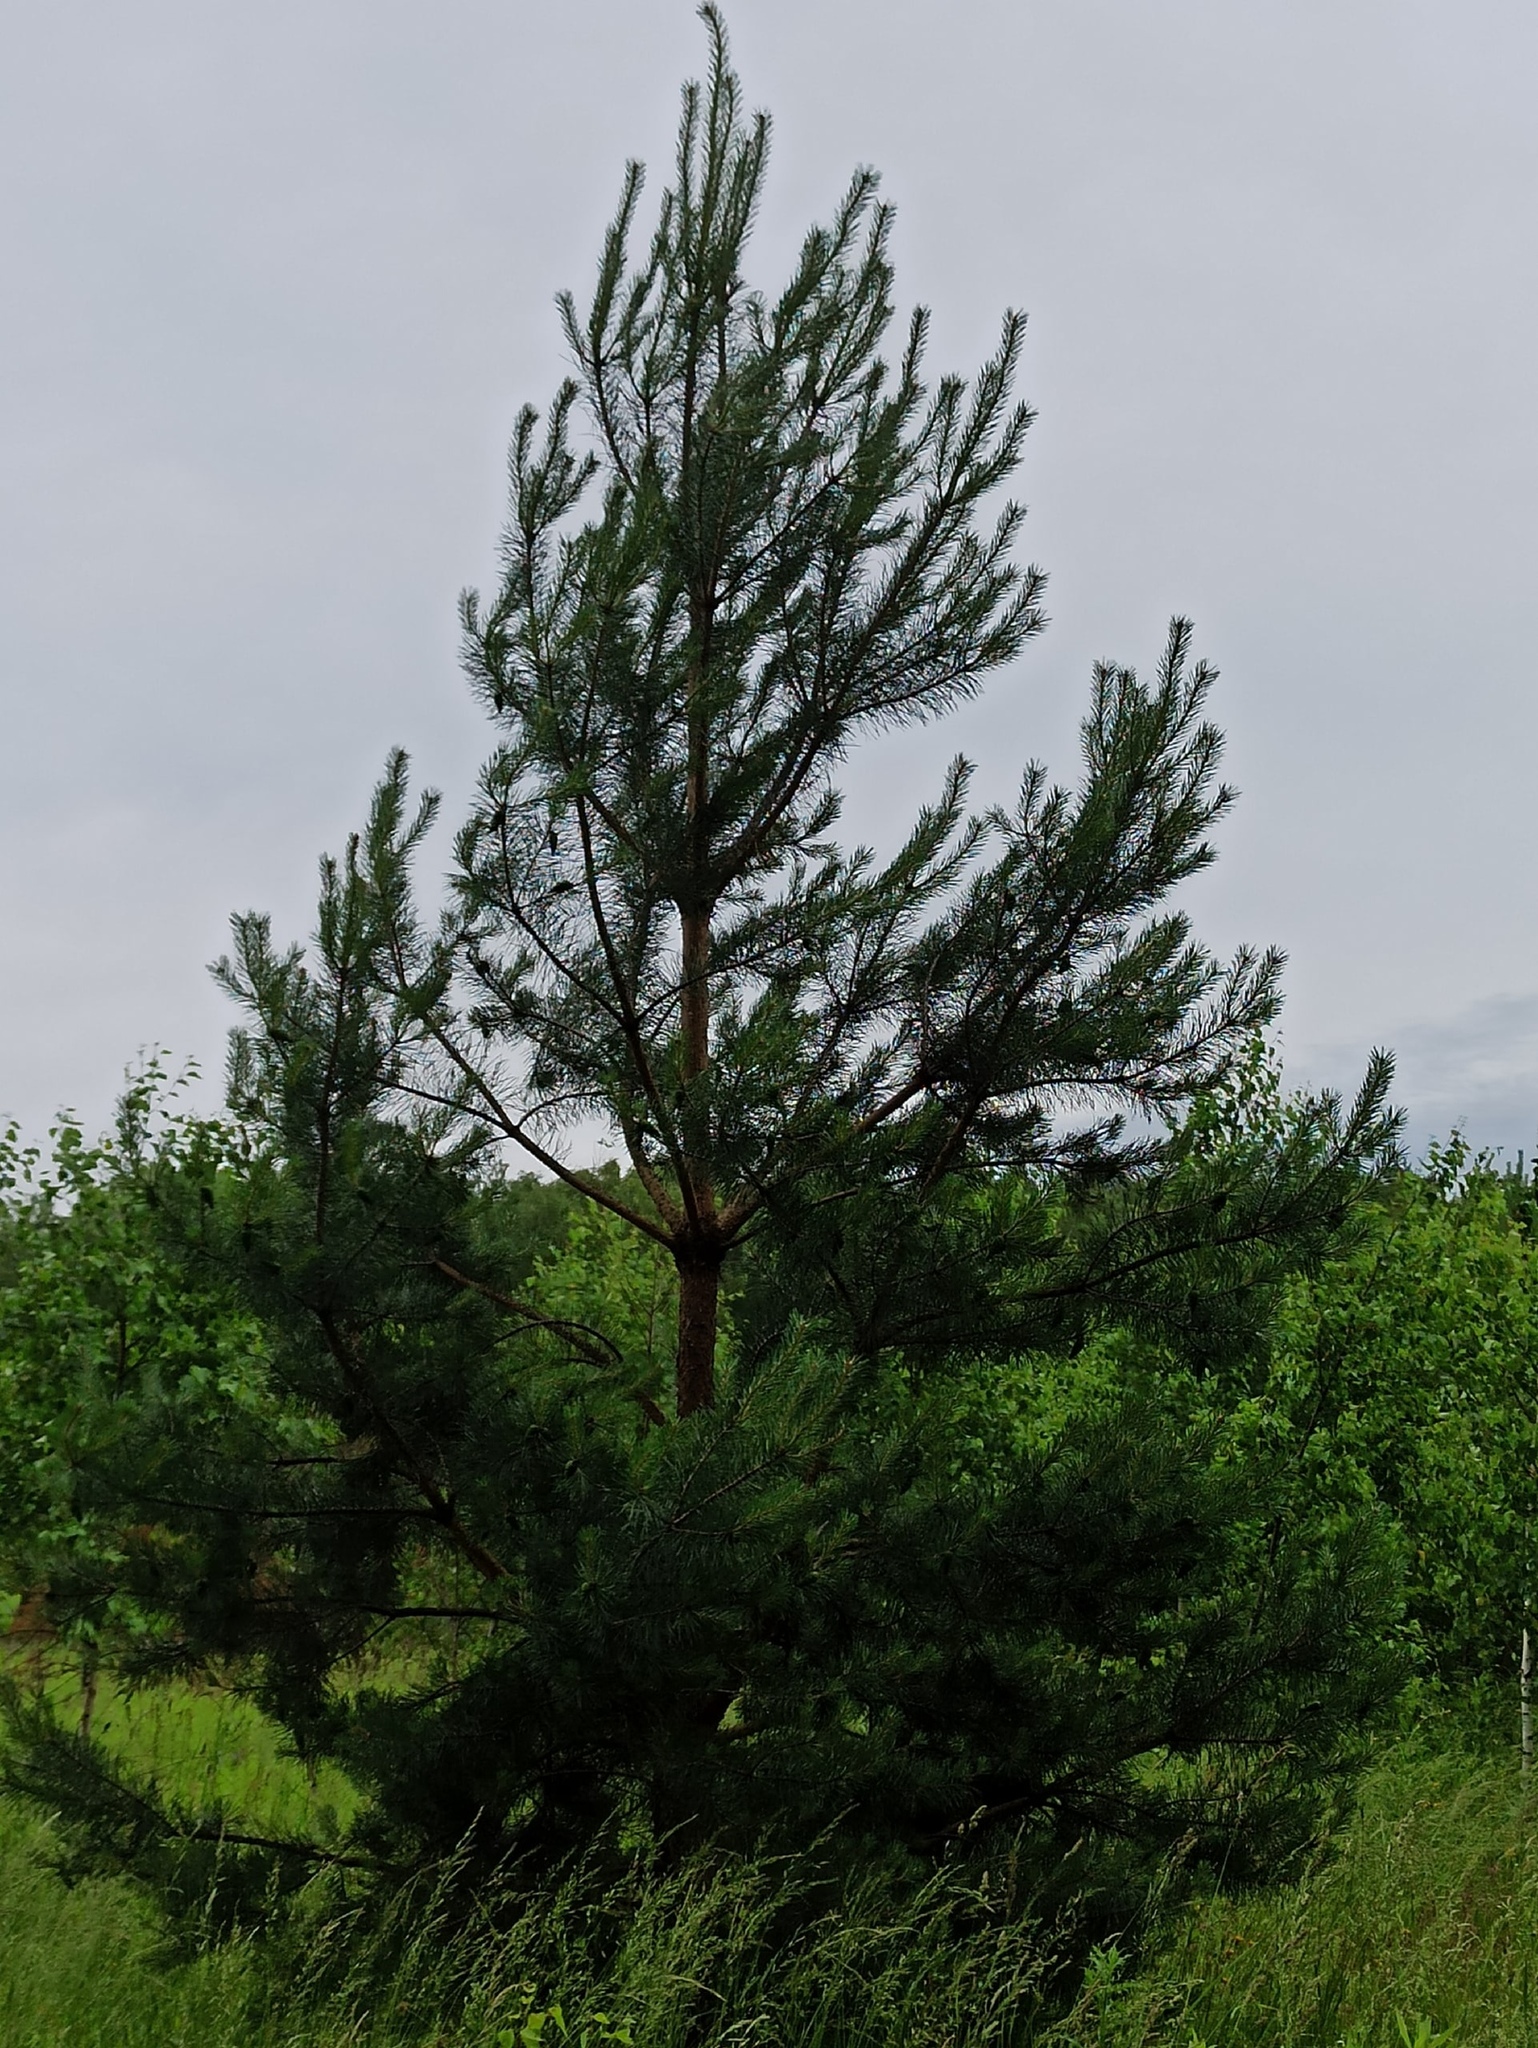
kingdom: Plantae
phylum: Tracheophyta
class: Pinopsida
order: Pinales
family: Pinaceae
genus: Pinus
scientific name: Pinus sylvestris
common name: Scots pine
